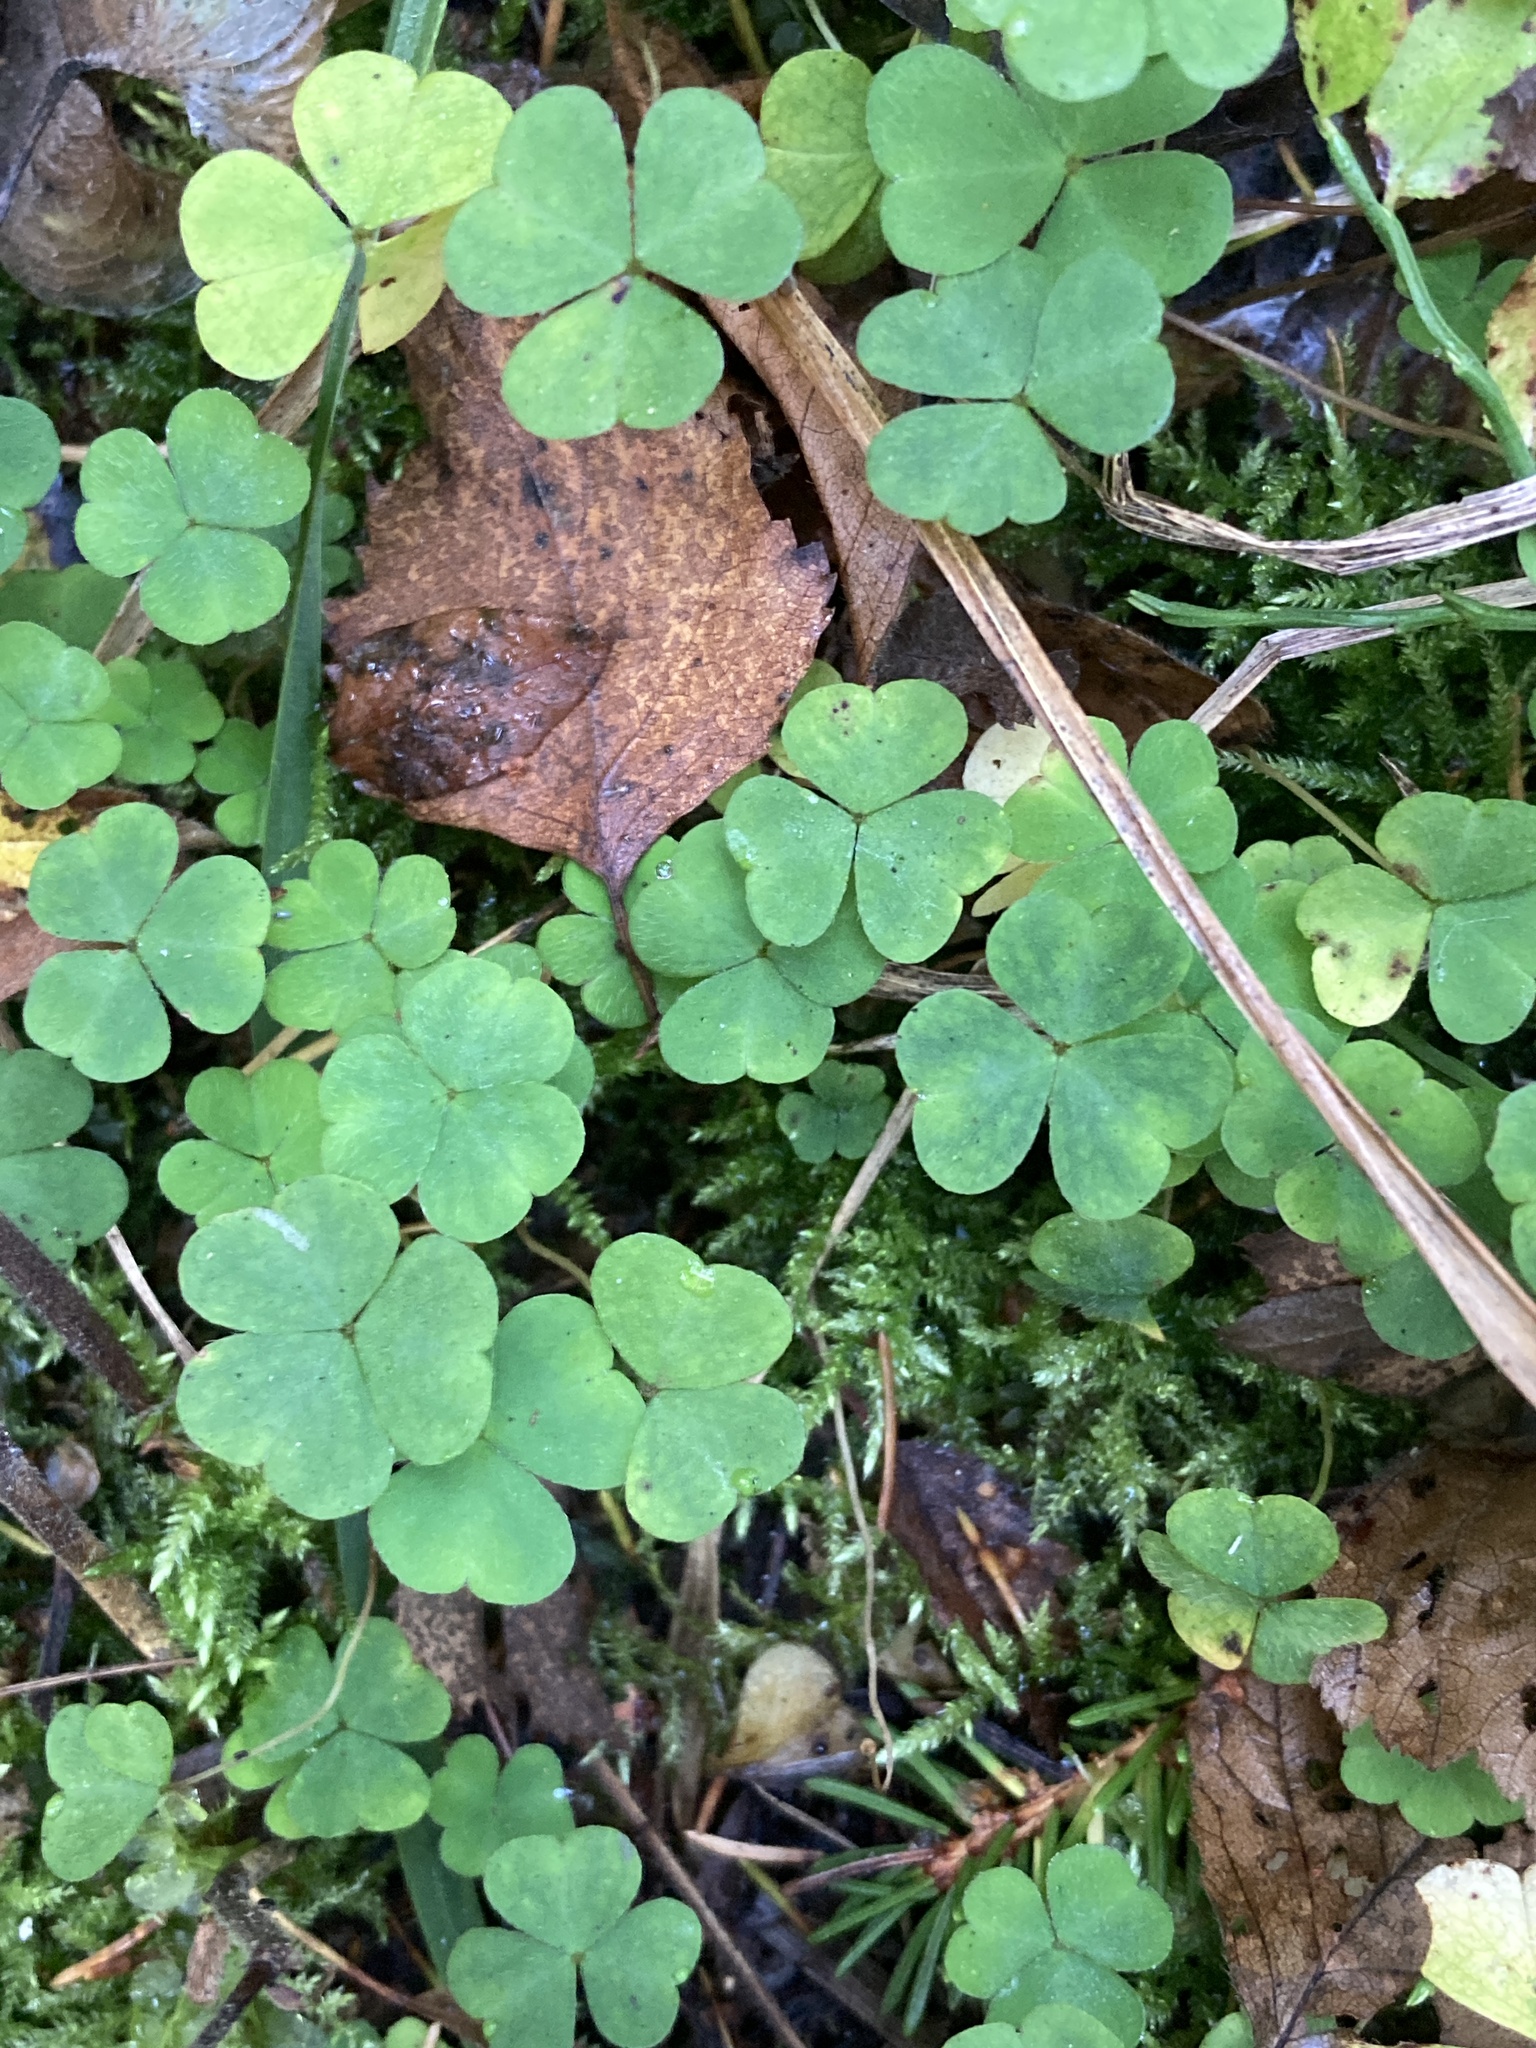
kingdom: Plantae
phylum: Tracheophyta
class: Magnoliopsida
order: Oxalidales
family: Oxalidaceae
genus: Oxalis
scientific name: Oxalis acetosella
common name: Wood-sorrel
